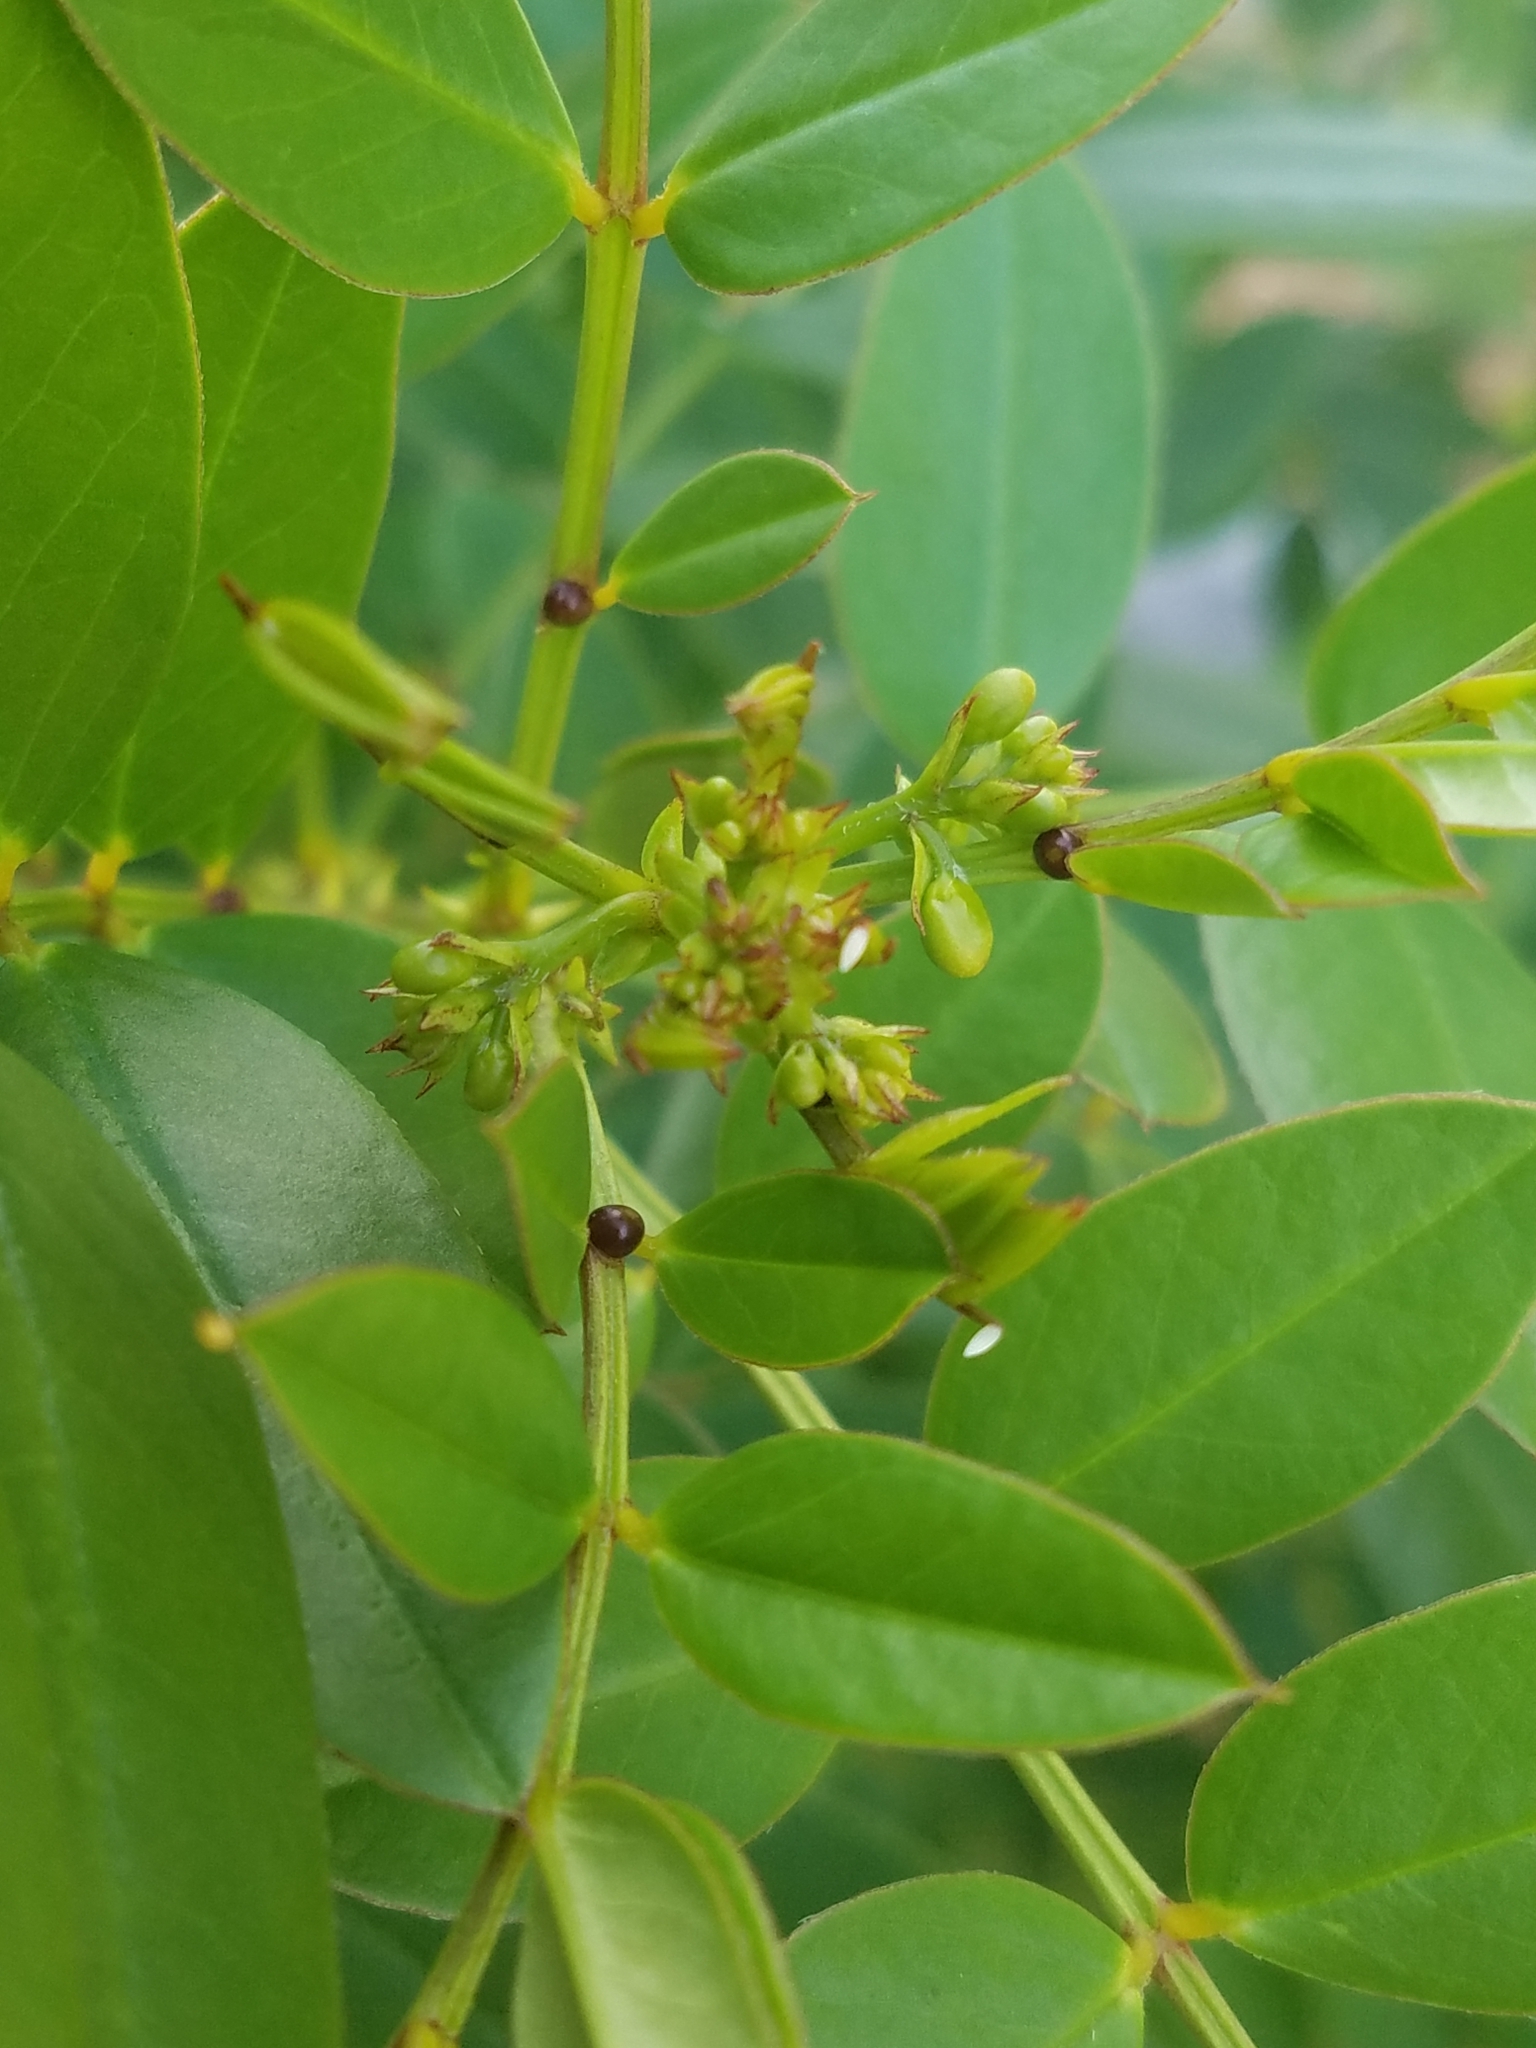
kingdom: Animalia
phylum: Arthropoda
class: Insecta
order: Lepidoptera
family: Pieridae
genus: Phoebis
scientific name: Phoebis philea
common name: Orange-barred giant sulphur
